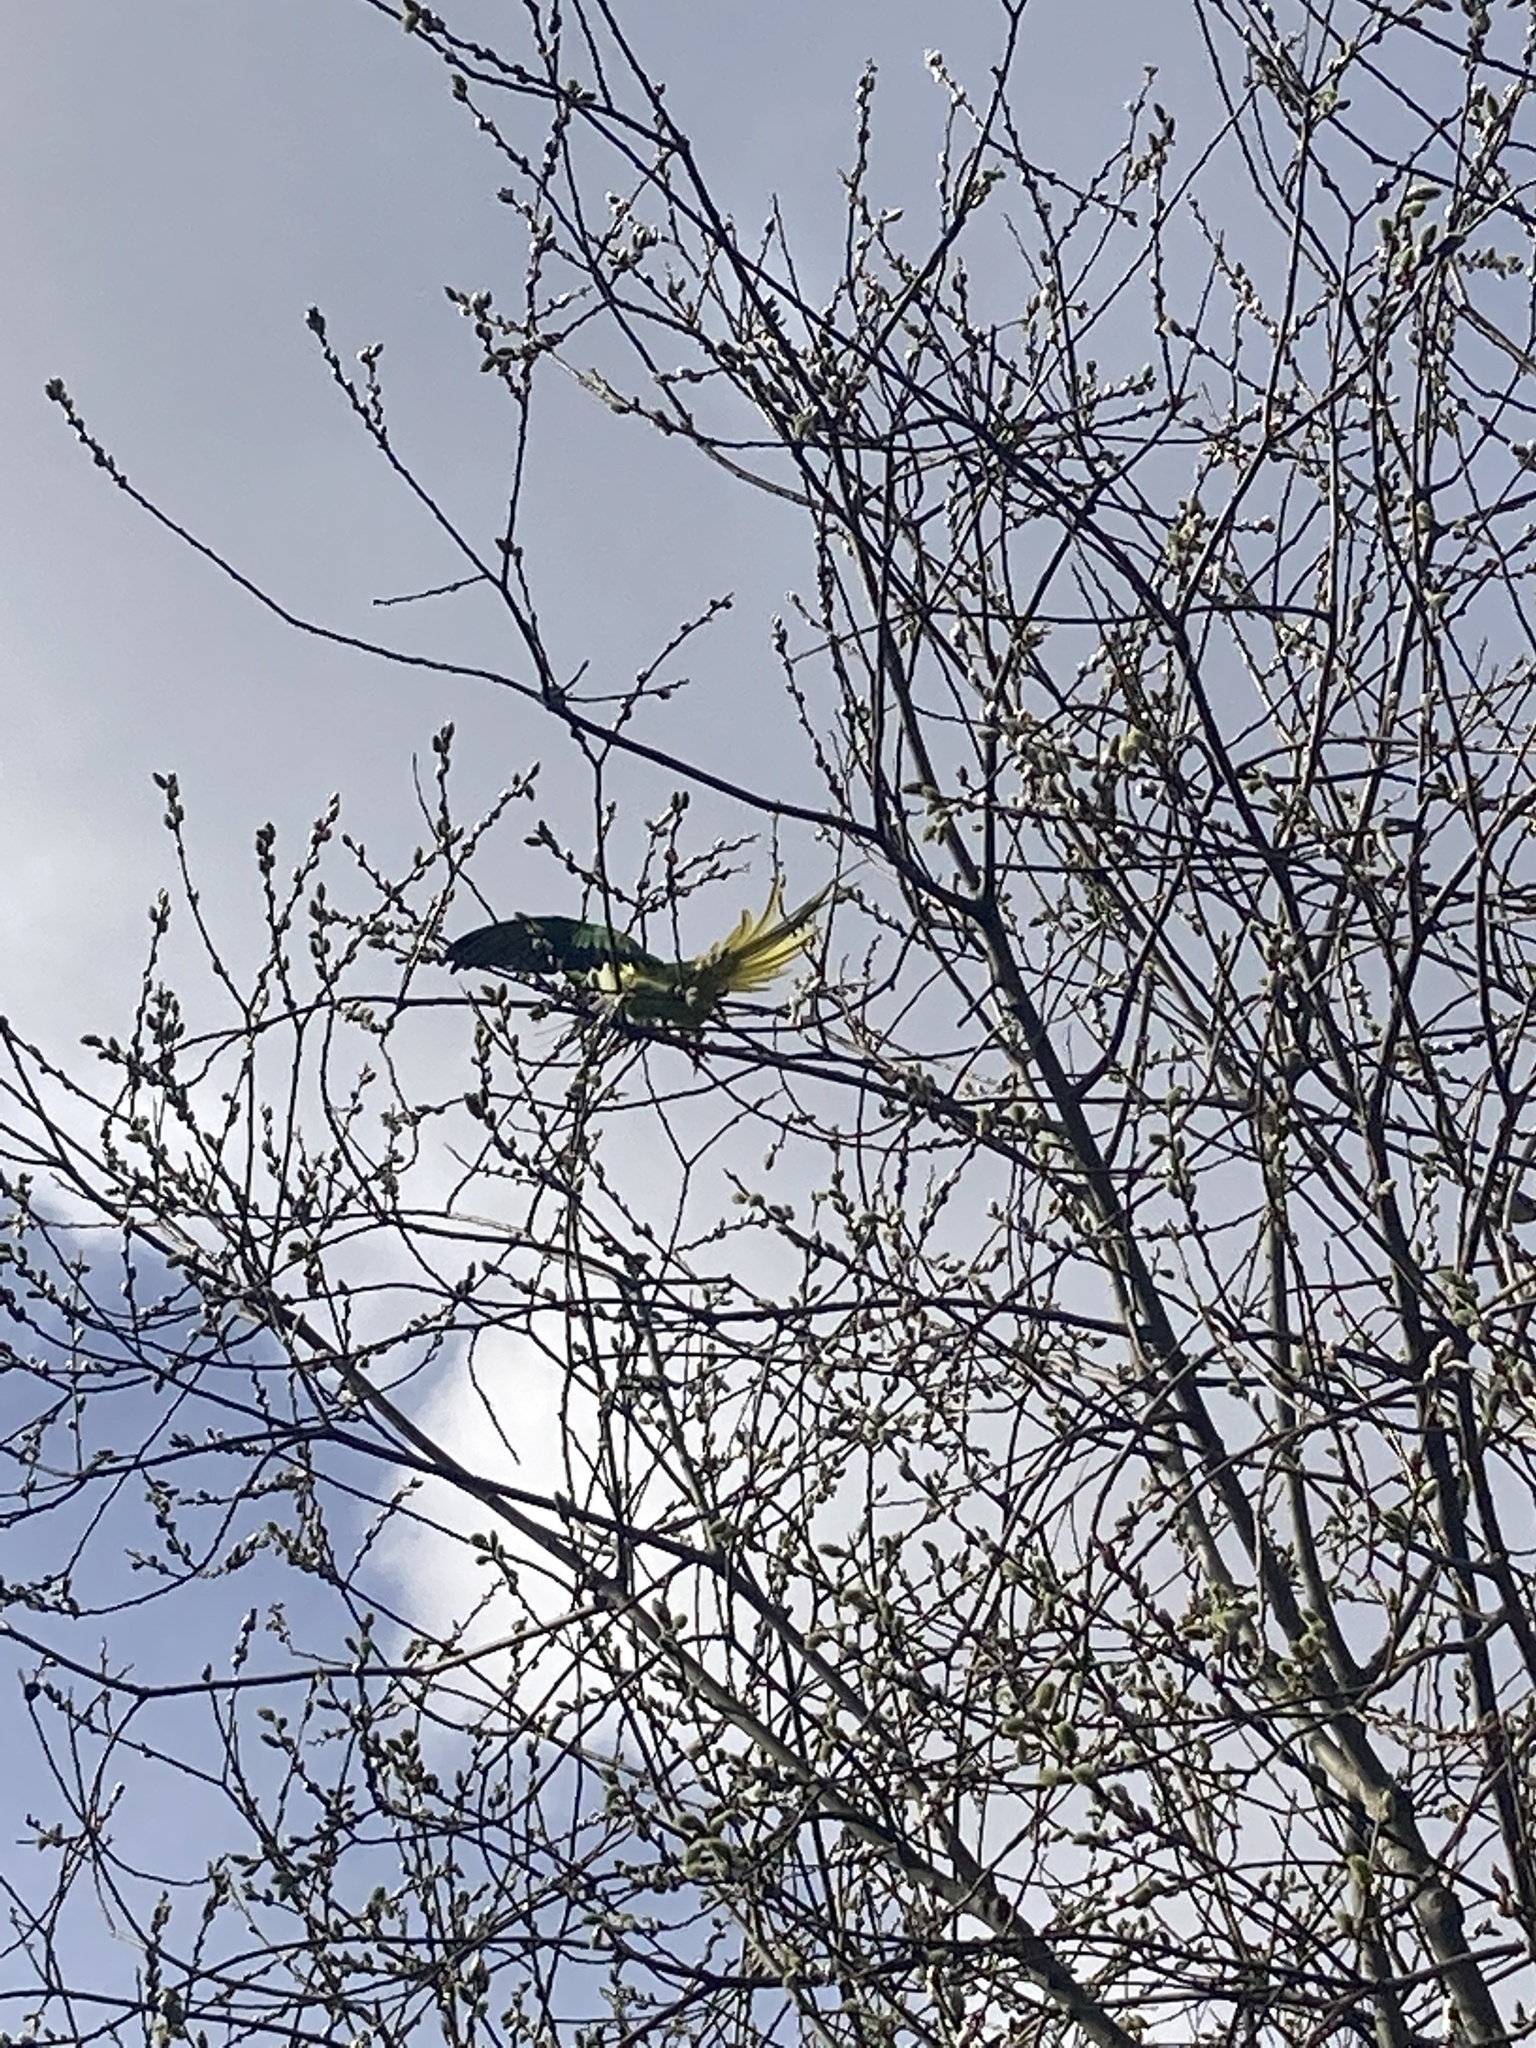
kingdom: Animalia
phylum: Chordata
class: Aves
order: Psittaciformes
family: Psittacidae
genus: Psittacula
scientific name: Psittacula krameri
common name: Rose-ringed parakeet
